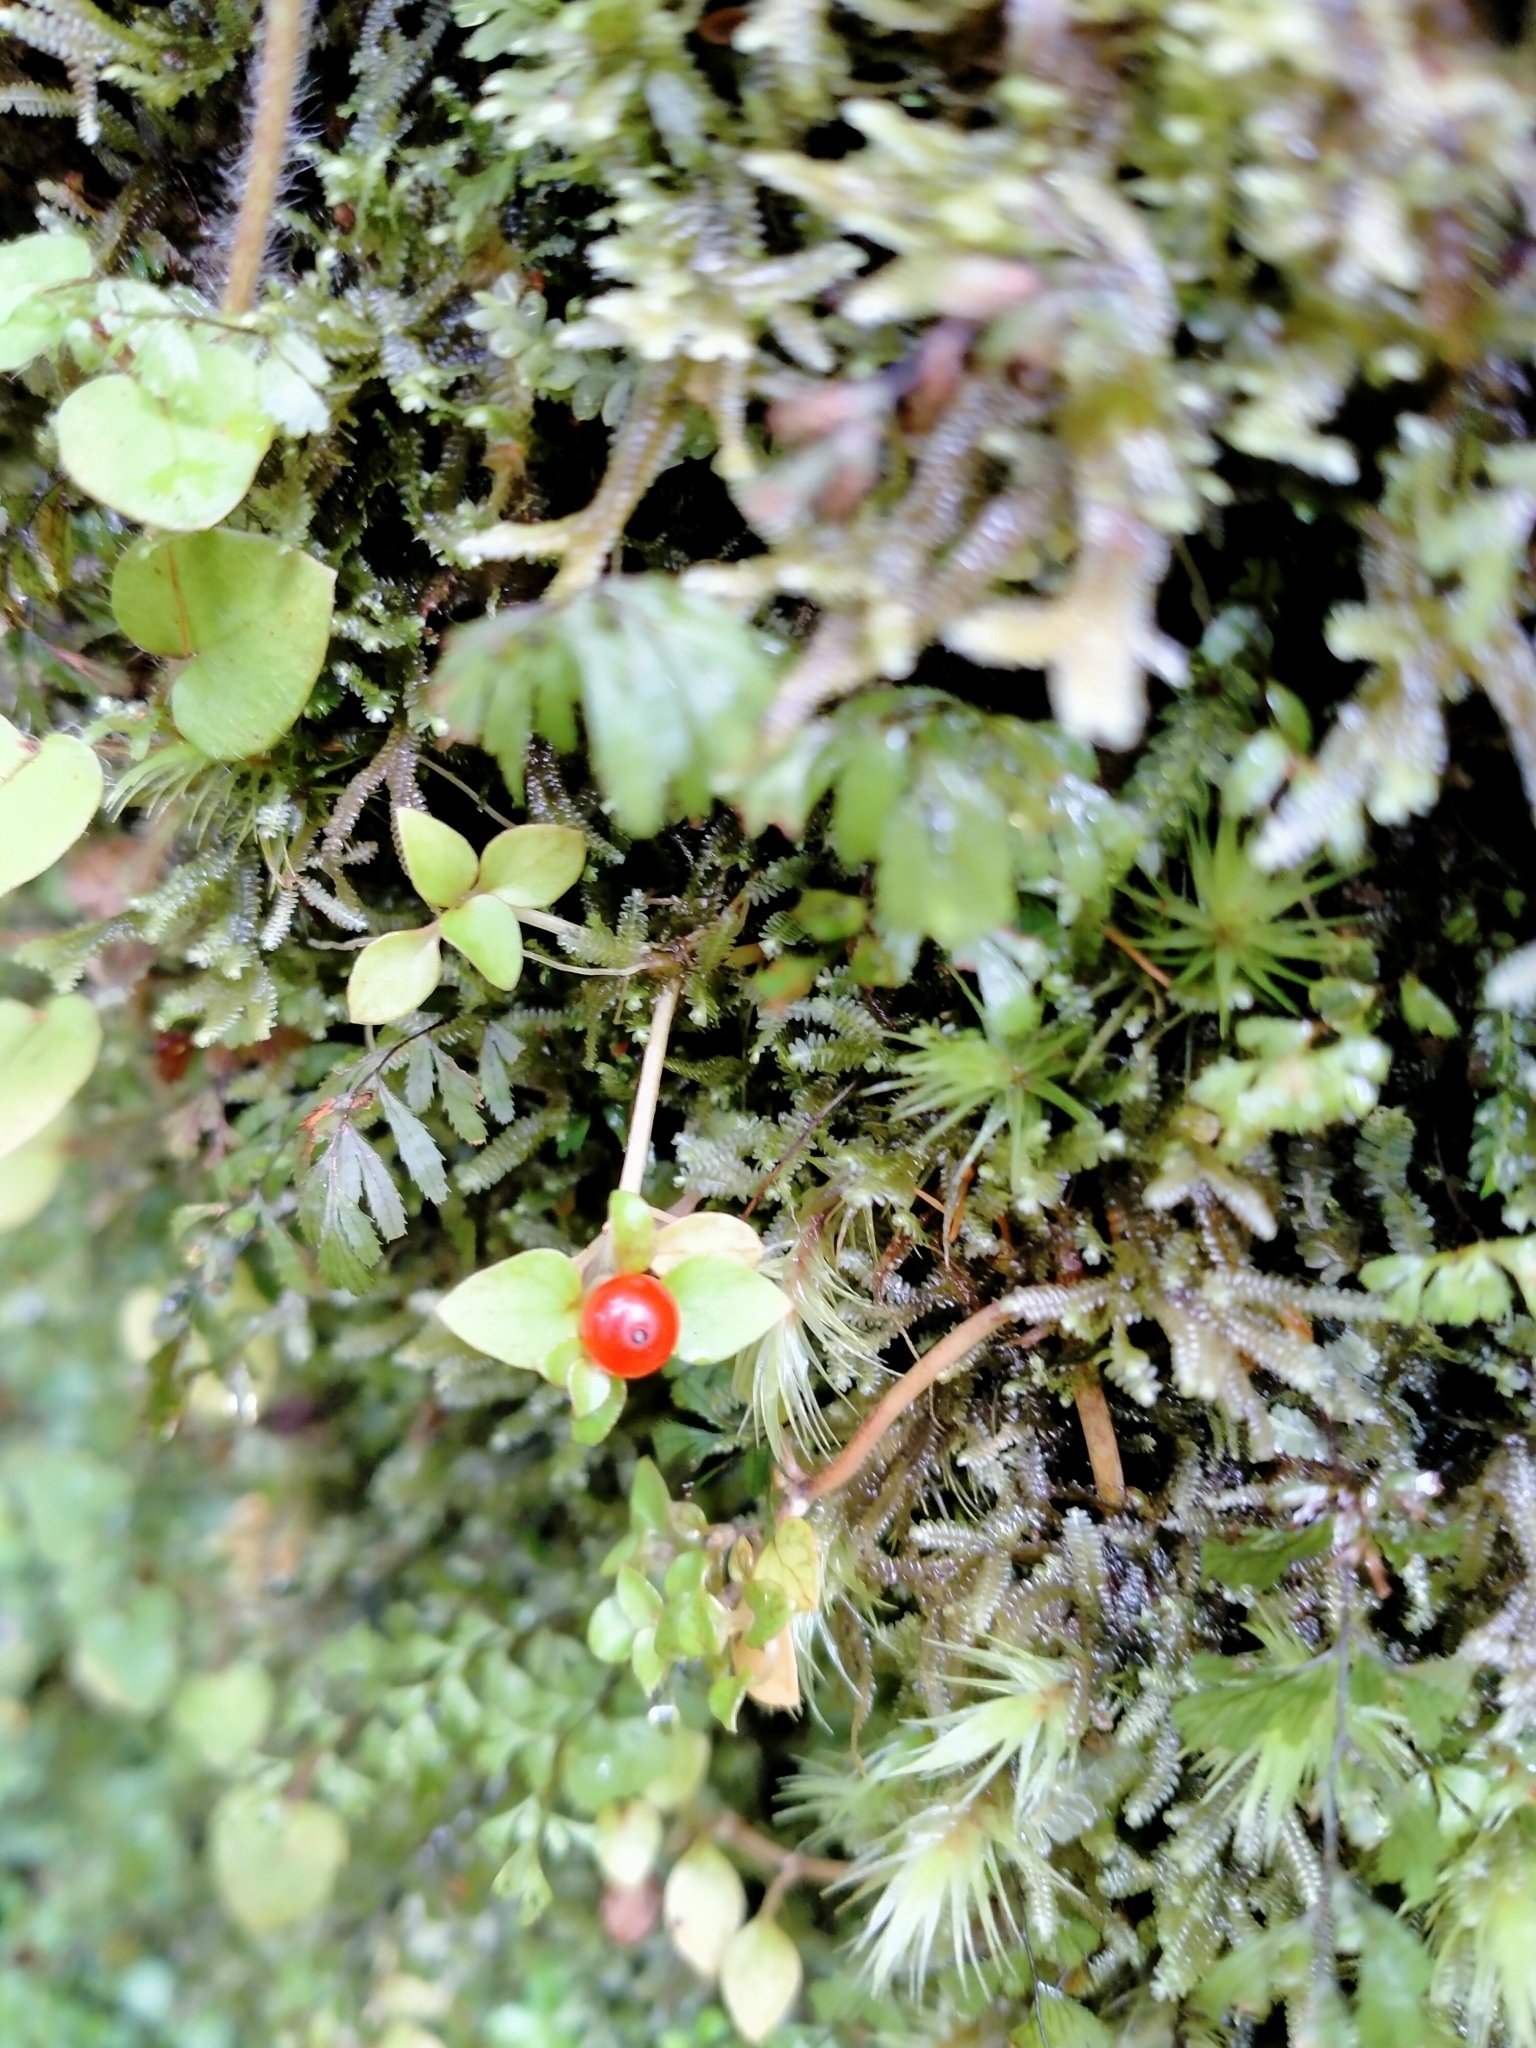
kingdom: Plantae
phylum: Tracheophyta
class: Magnoliopsida
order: Gentianales
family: Rubiaceae
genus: Nertera
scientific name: Nertera granadensis
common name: Beadplant
